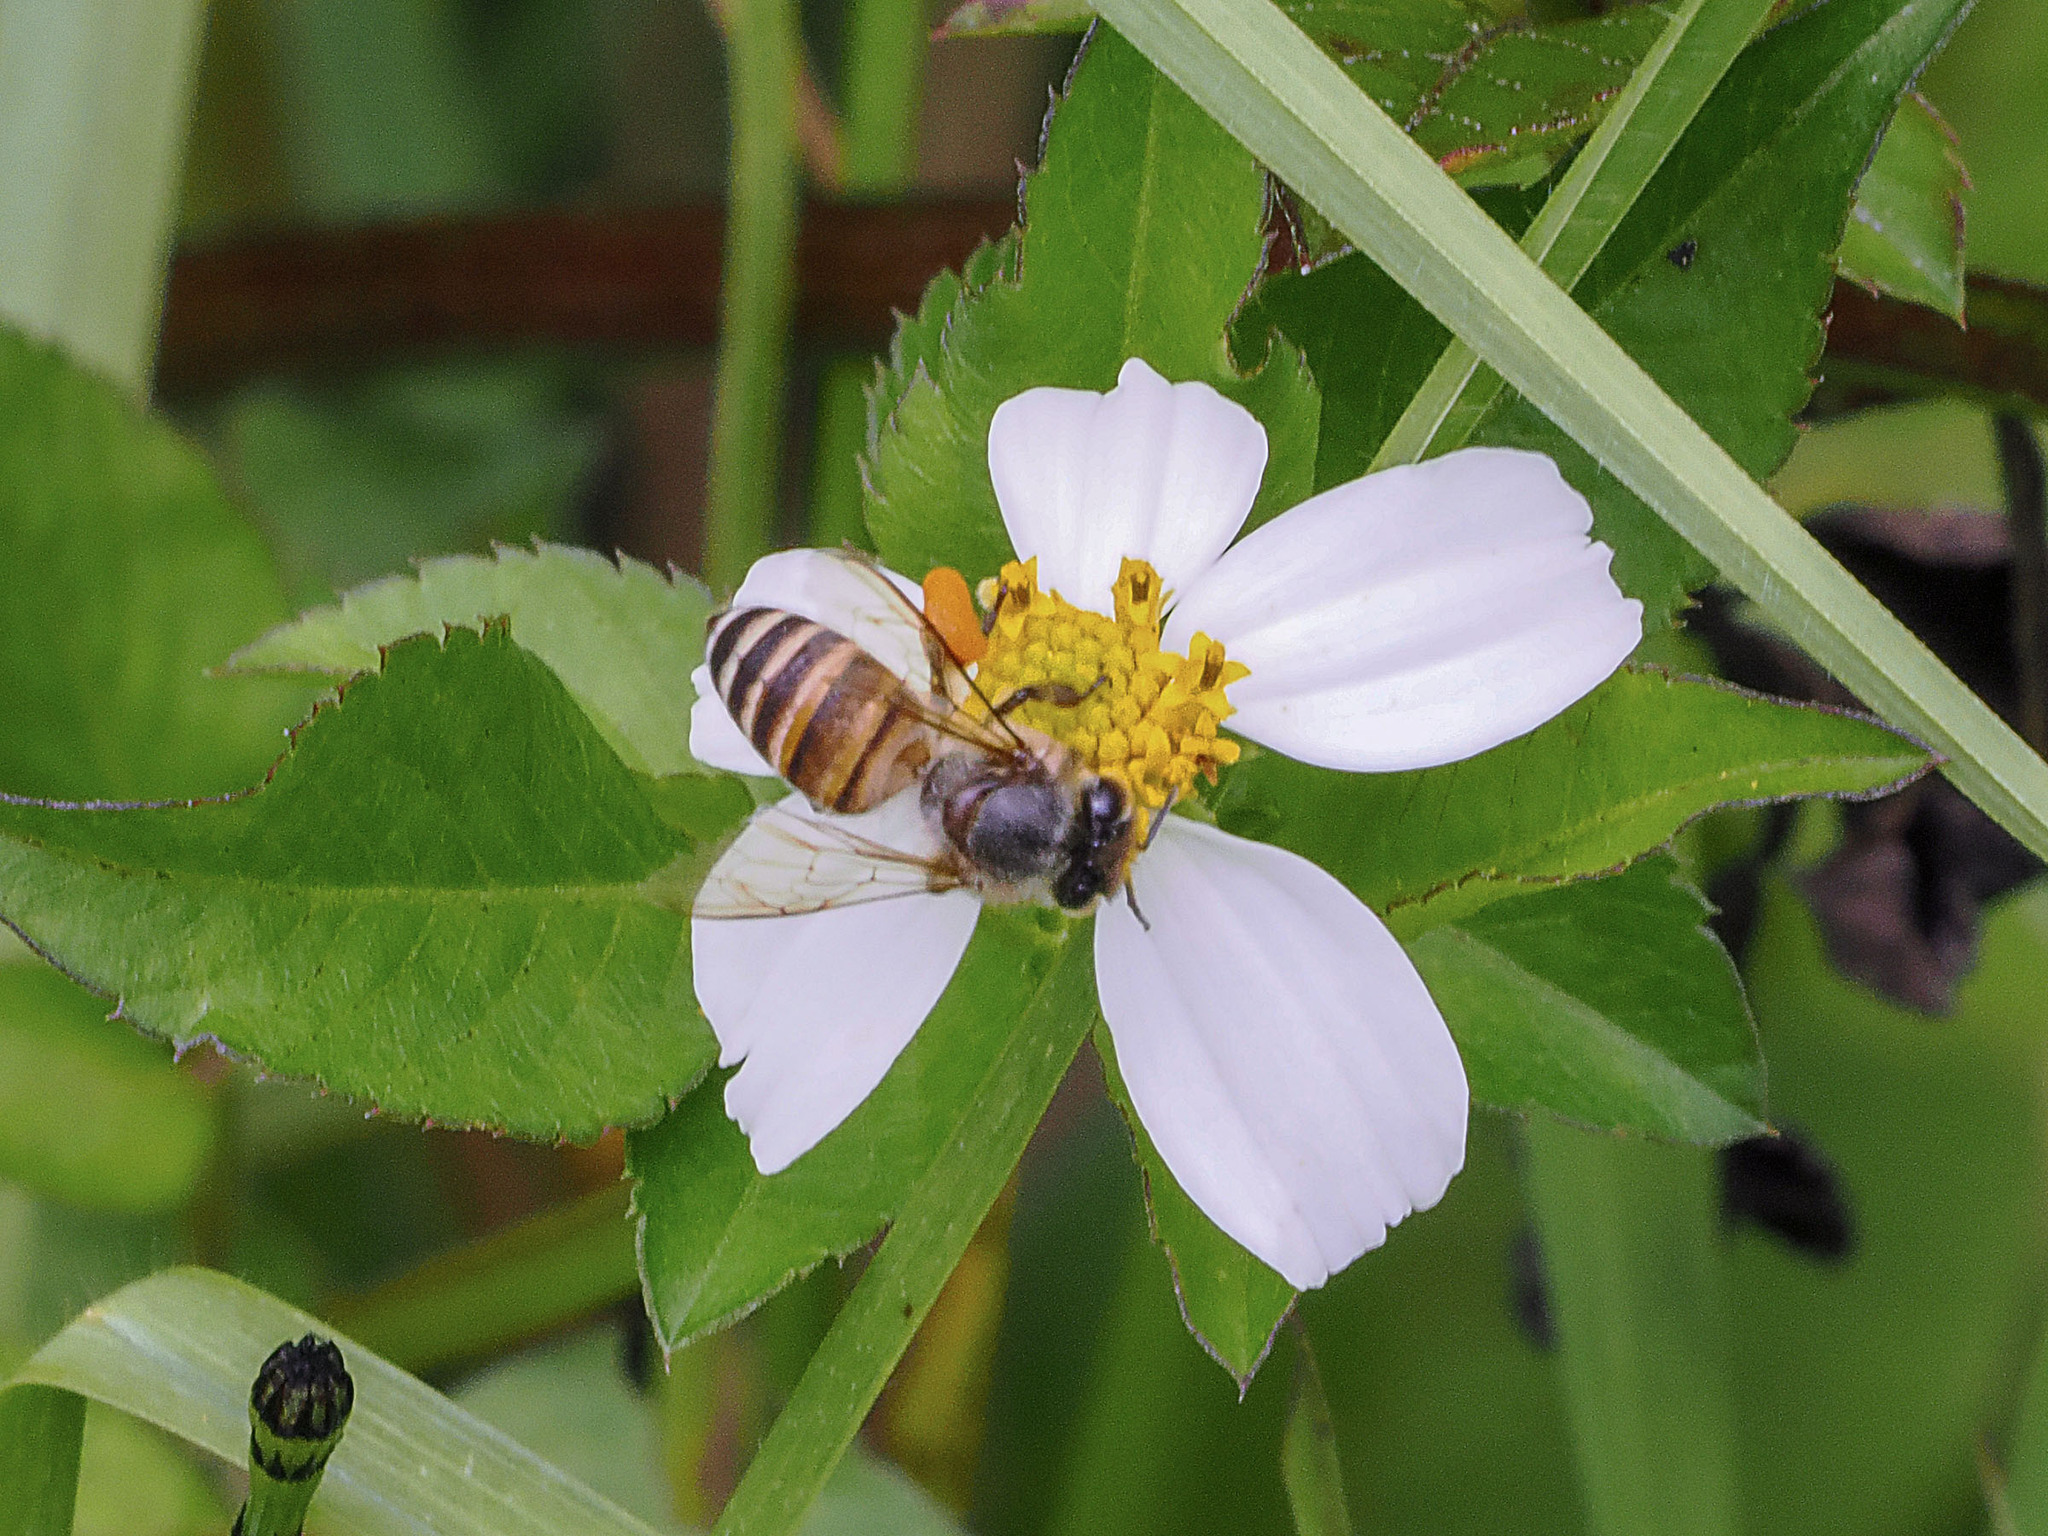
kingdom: Animalia
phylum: Arthropoda
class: Insecta
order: Hymenoptera
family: Apidae
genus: Apis
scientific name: Apis cerana
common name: Honey bee
